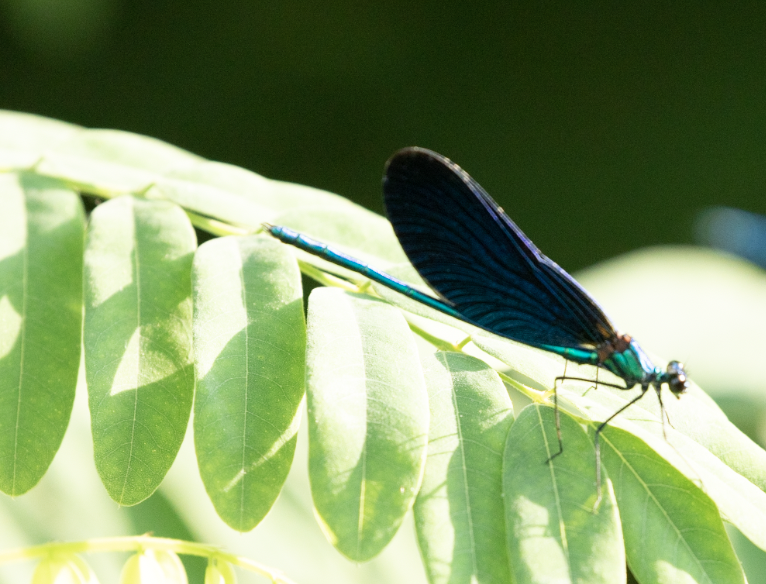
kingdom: Animalia
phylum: Arthropoda
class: Insecta
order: Odonata
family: Calopterygidae
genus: Calopteryx
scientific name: Calopteryx virgo
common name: Beautiful demoiselle
